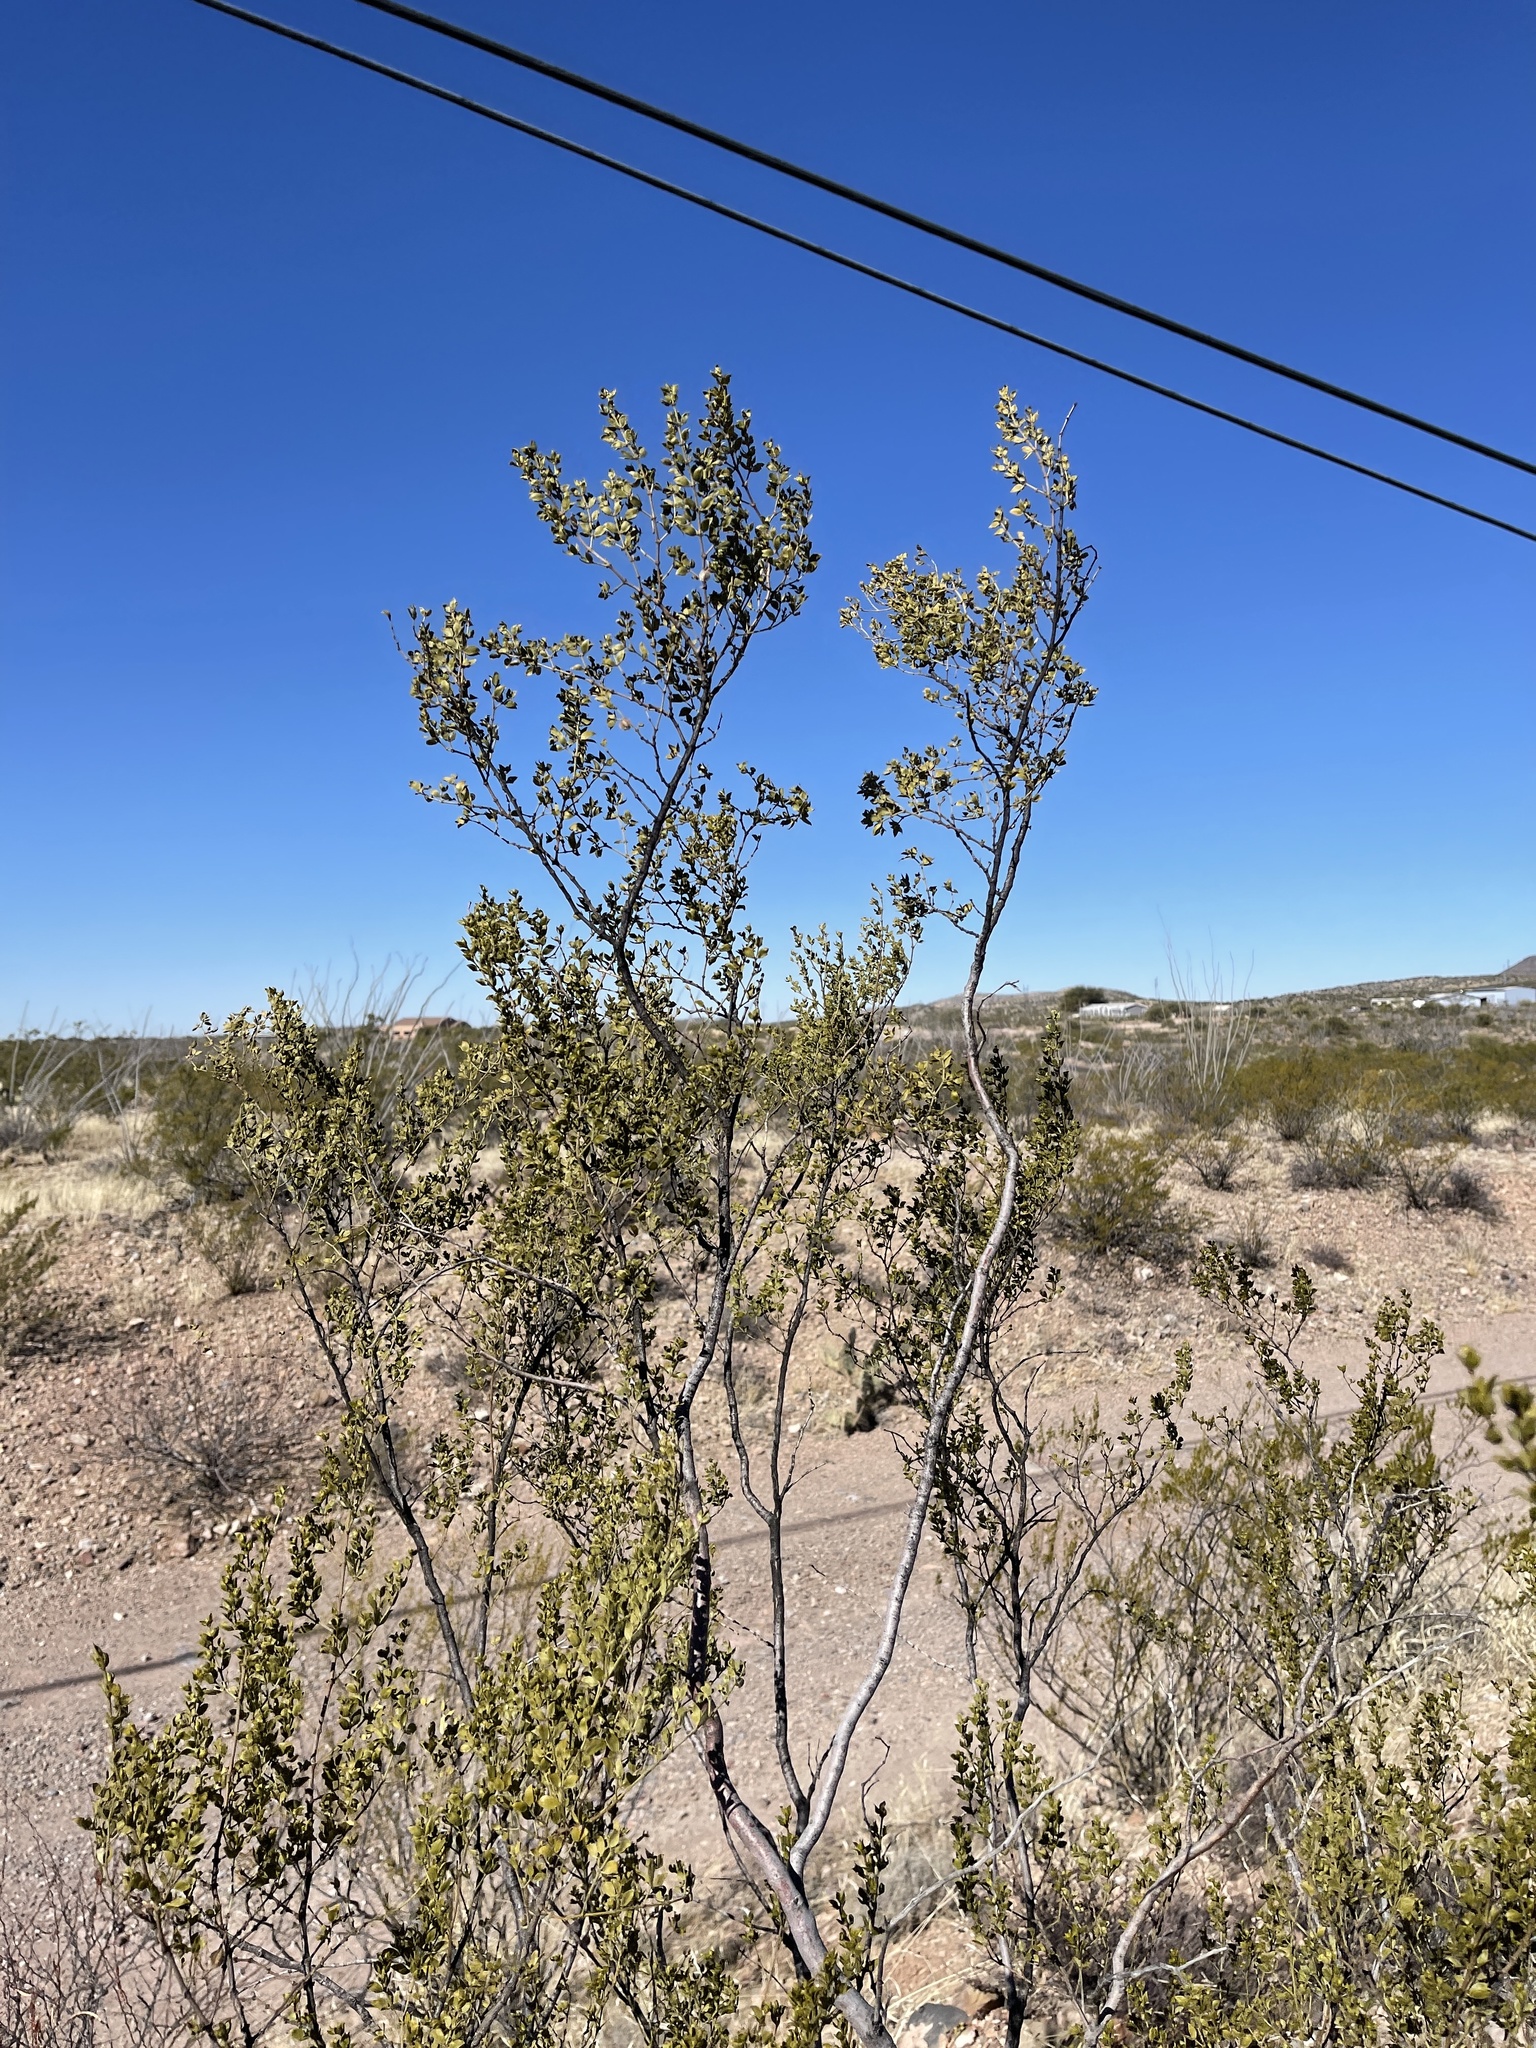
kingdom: Plantae
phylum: Tracheophyta
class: Magnoliopsida
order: Zygophyllales
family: Zygophyllaceae
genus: Larrea
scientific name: Larrea tridentata
